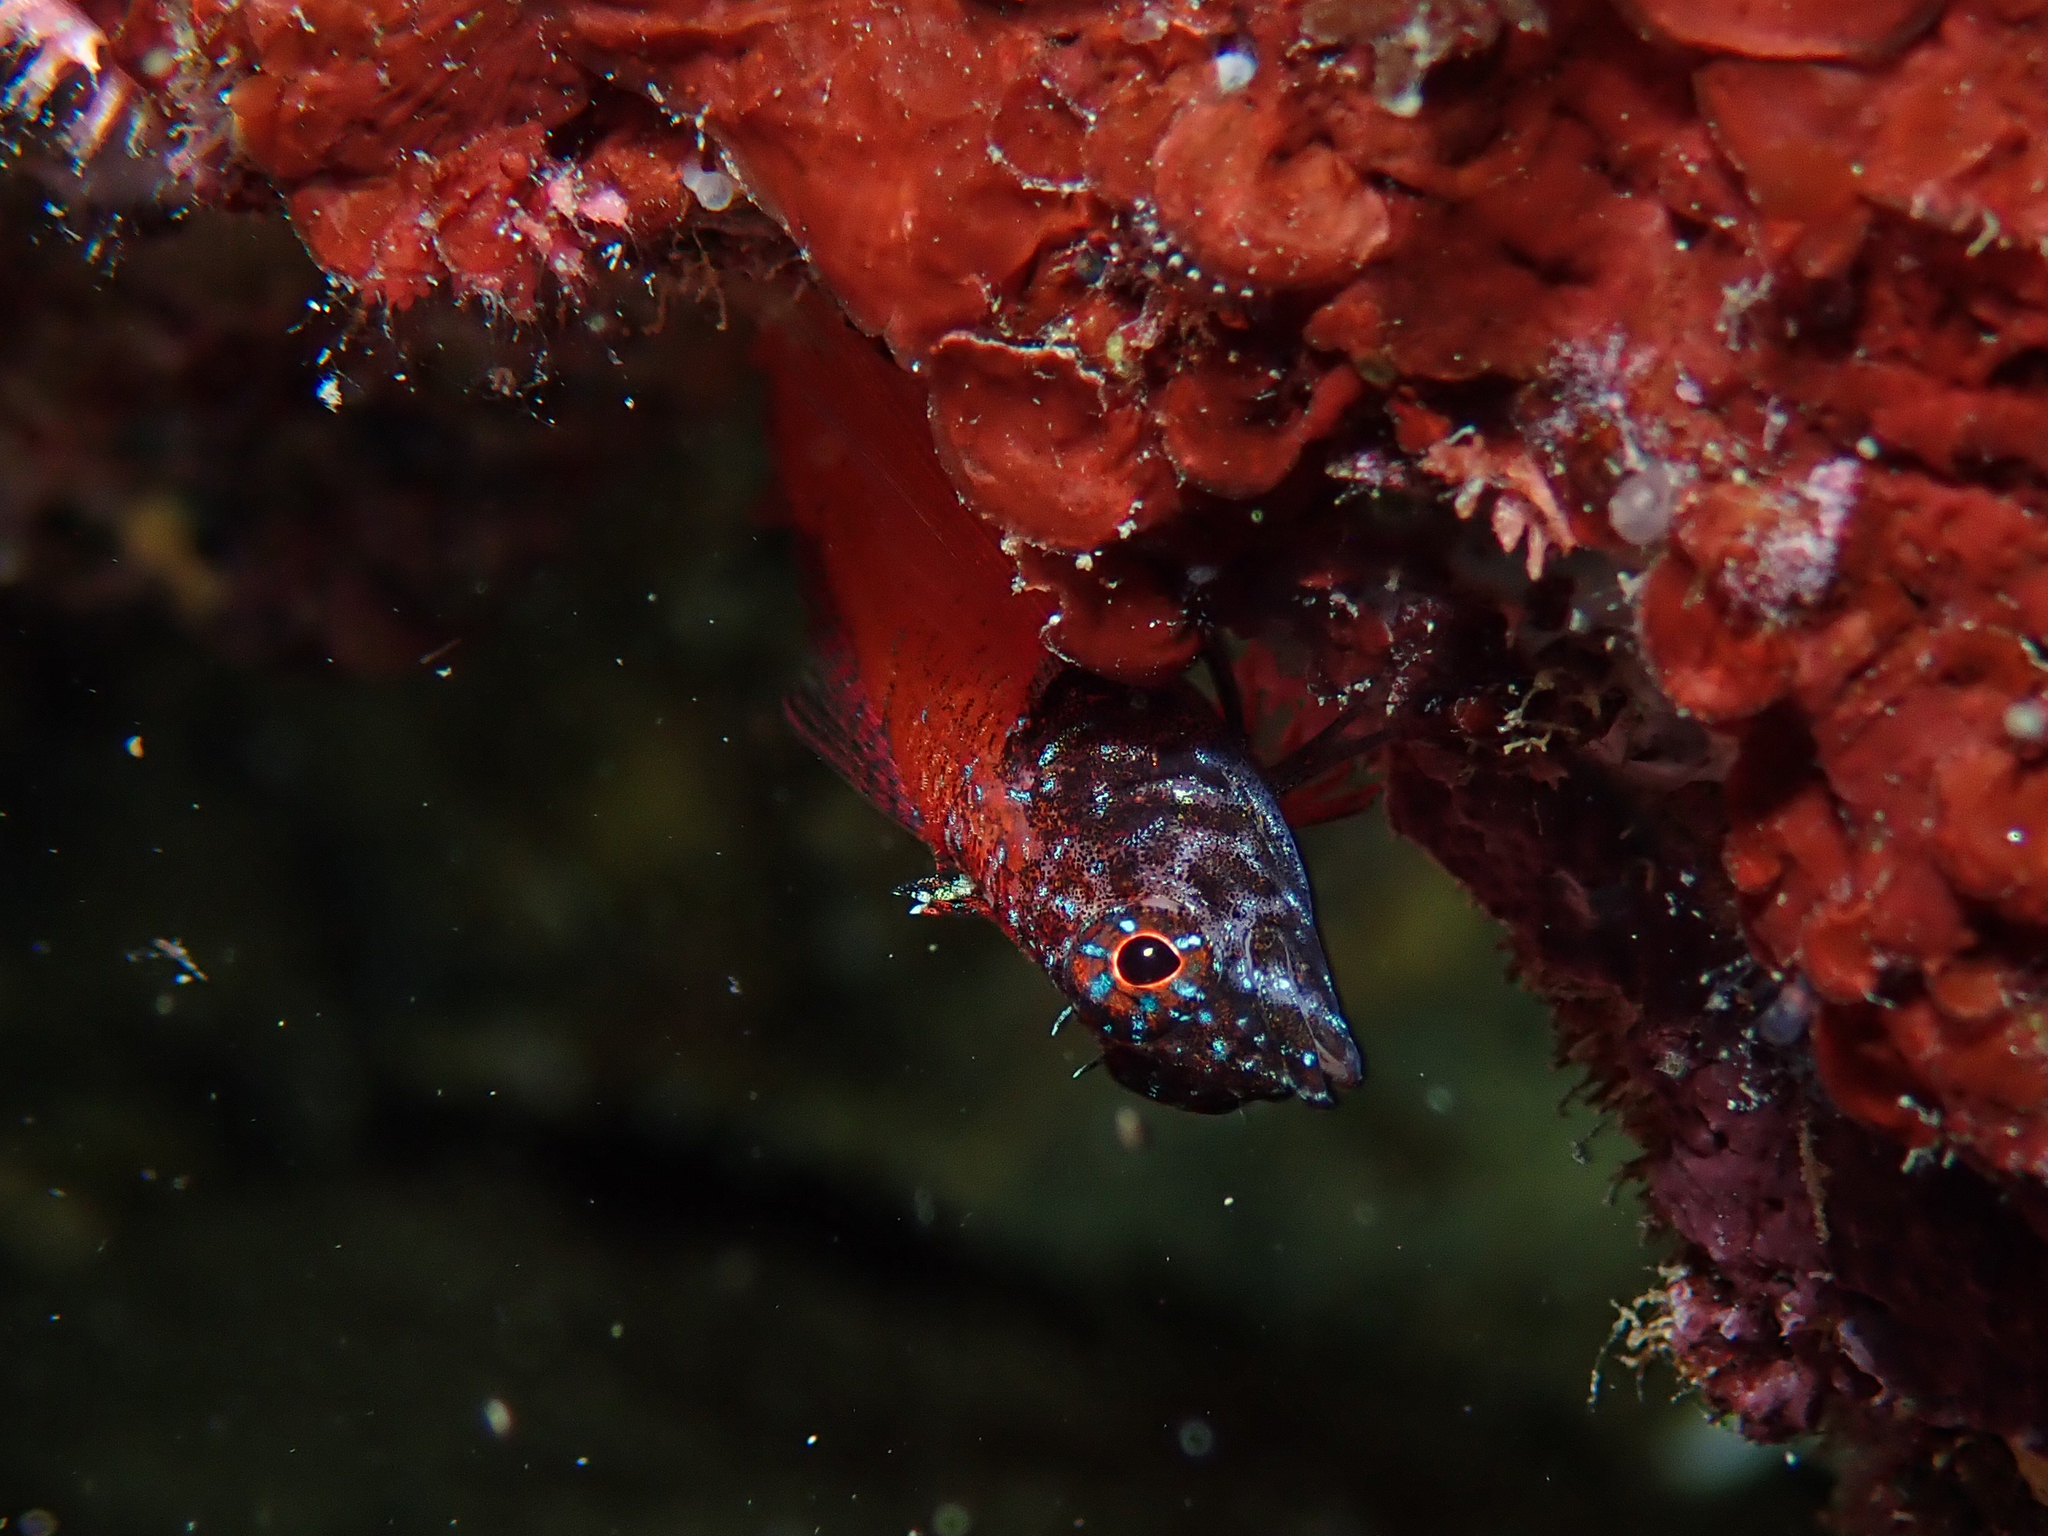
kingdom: Animalia
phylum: Chordata
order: Perciformes
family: Tripterygiidae
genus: Tripterygion
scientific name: Tripterygion melanurum
